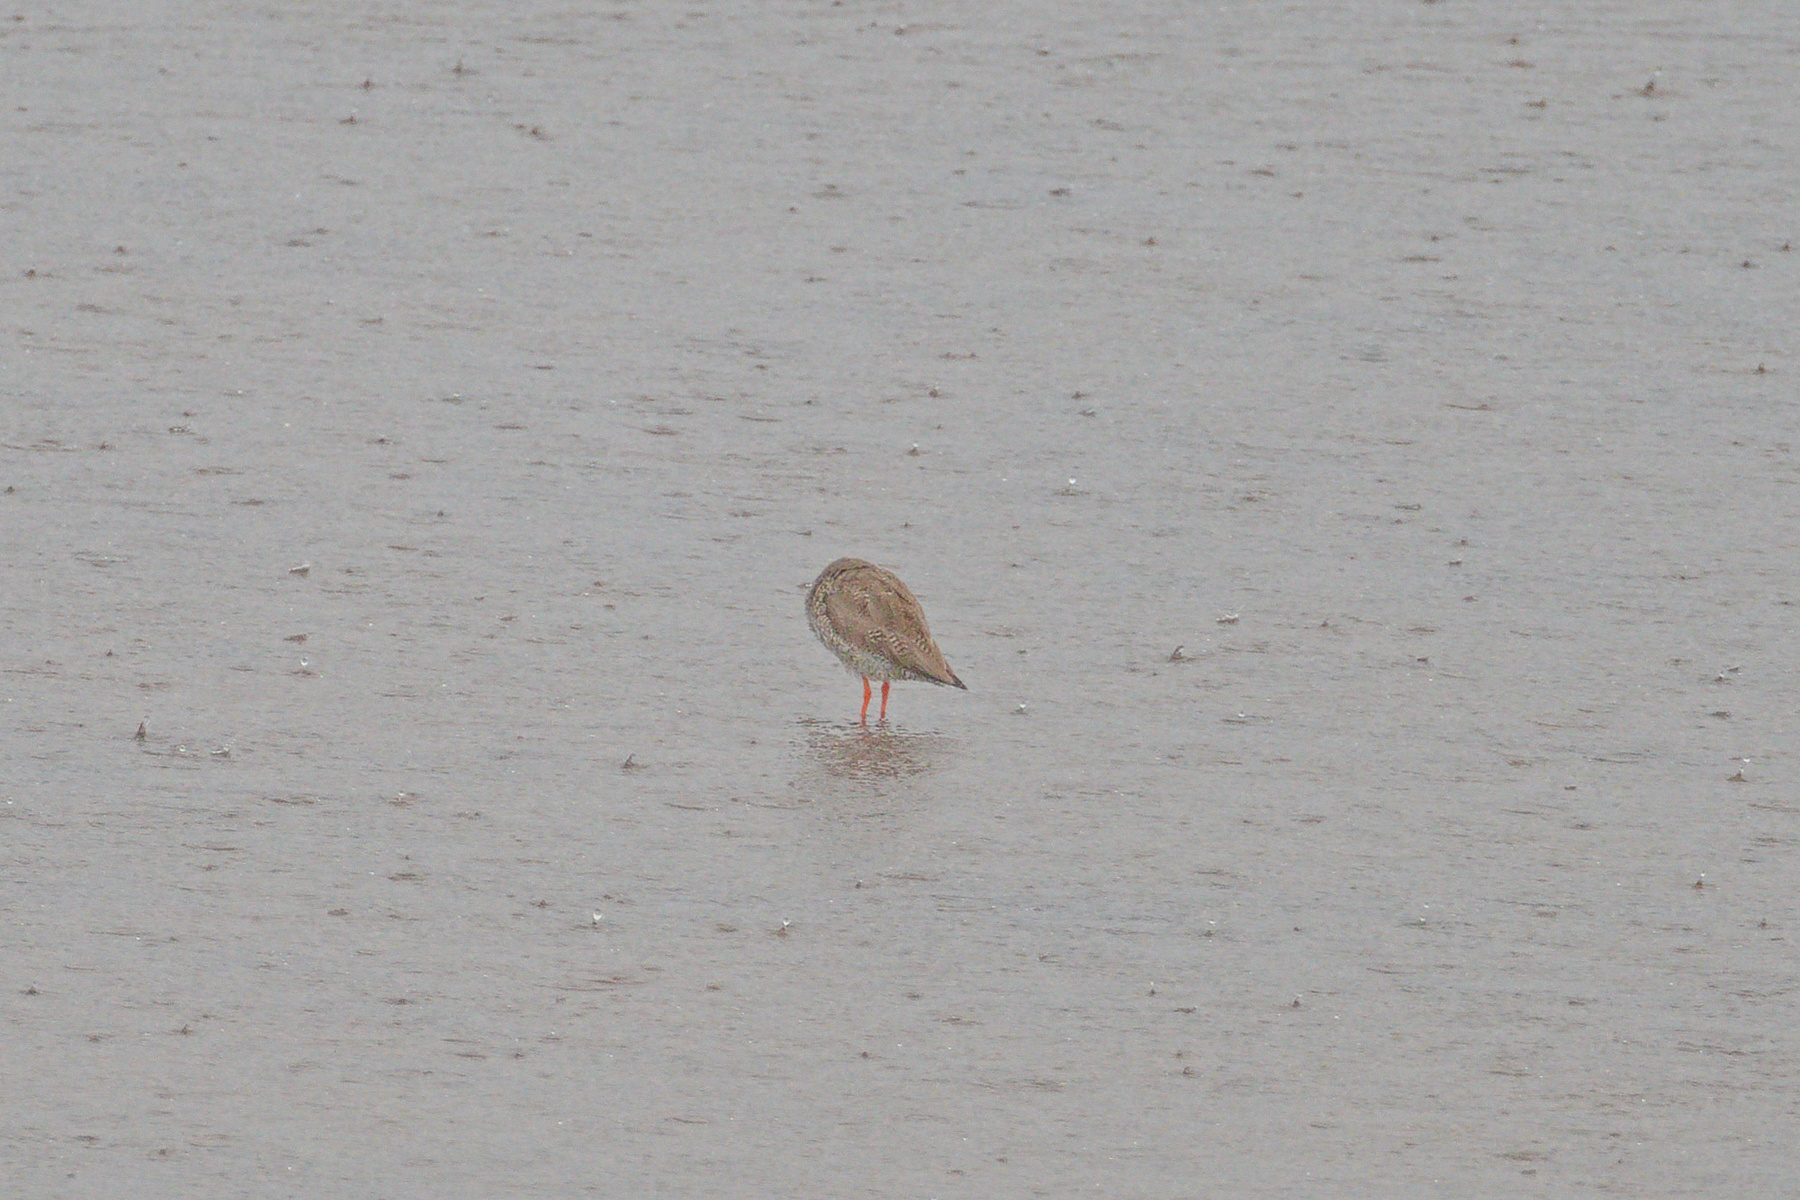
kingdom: Animalia
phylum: Chordata
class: Aves
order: Charadriiformes
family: Scolopacidae
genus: Tringa
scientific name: Tringa totanus
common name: Common redshank
